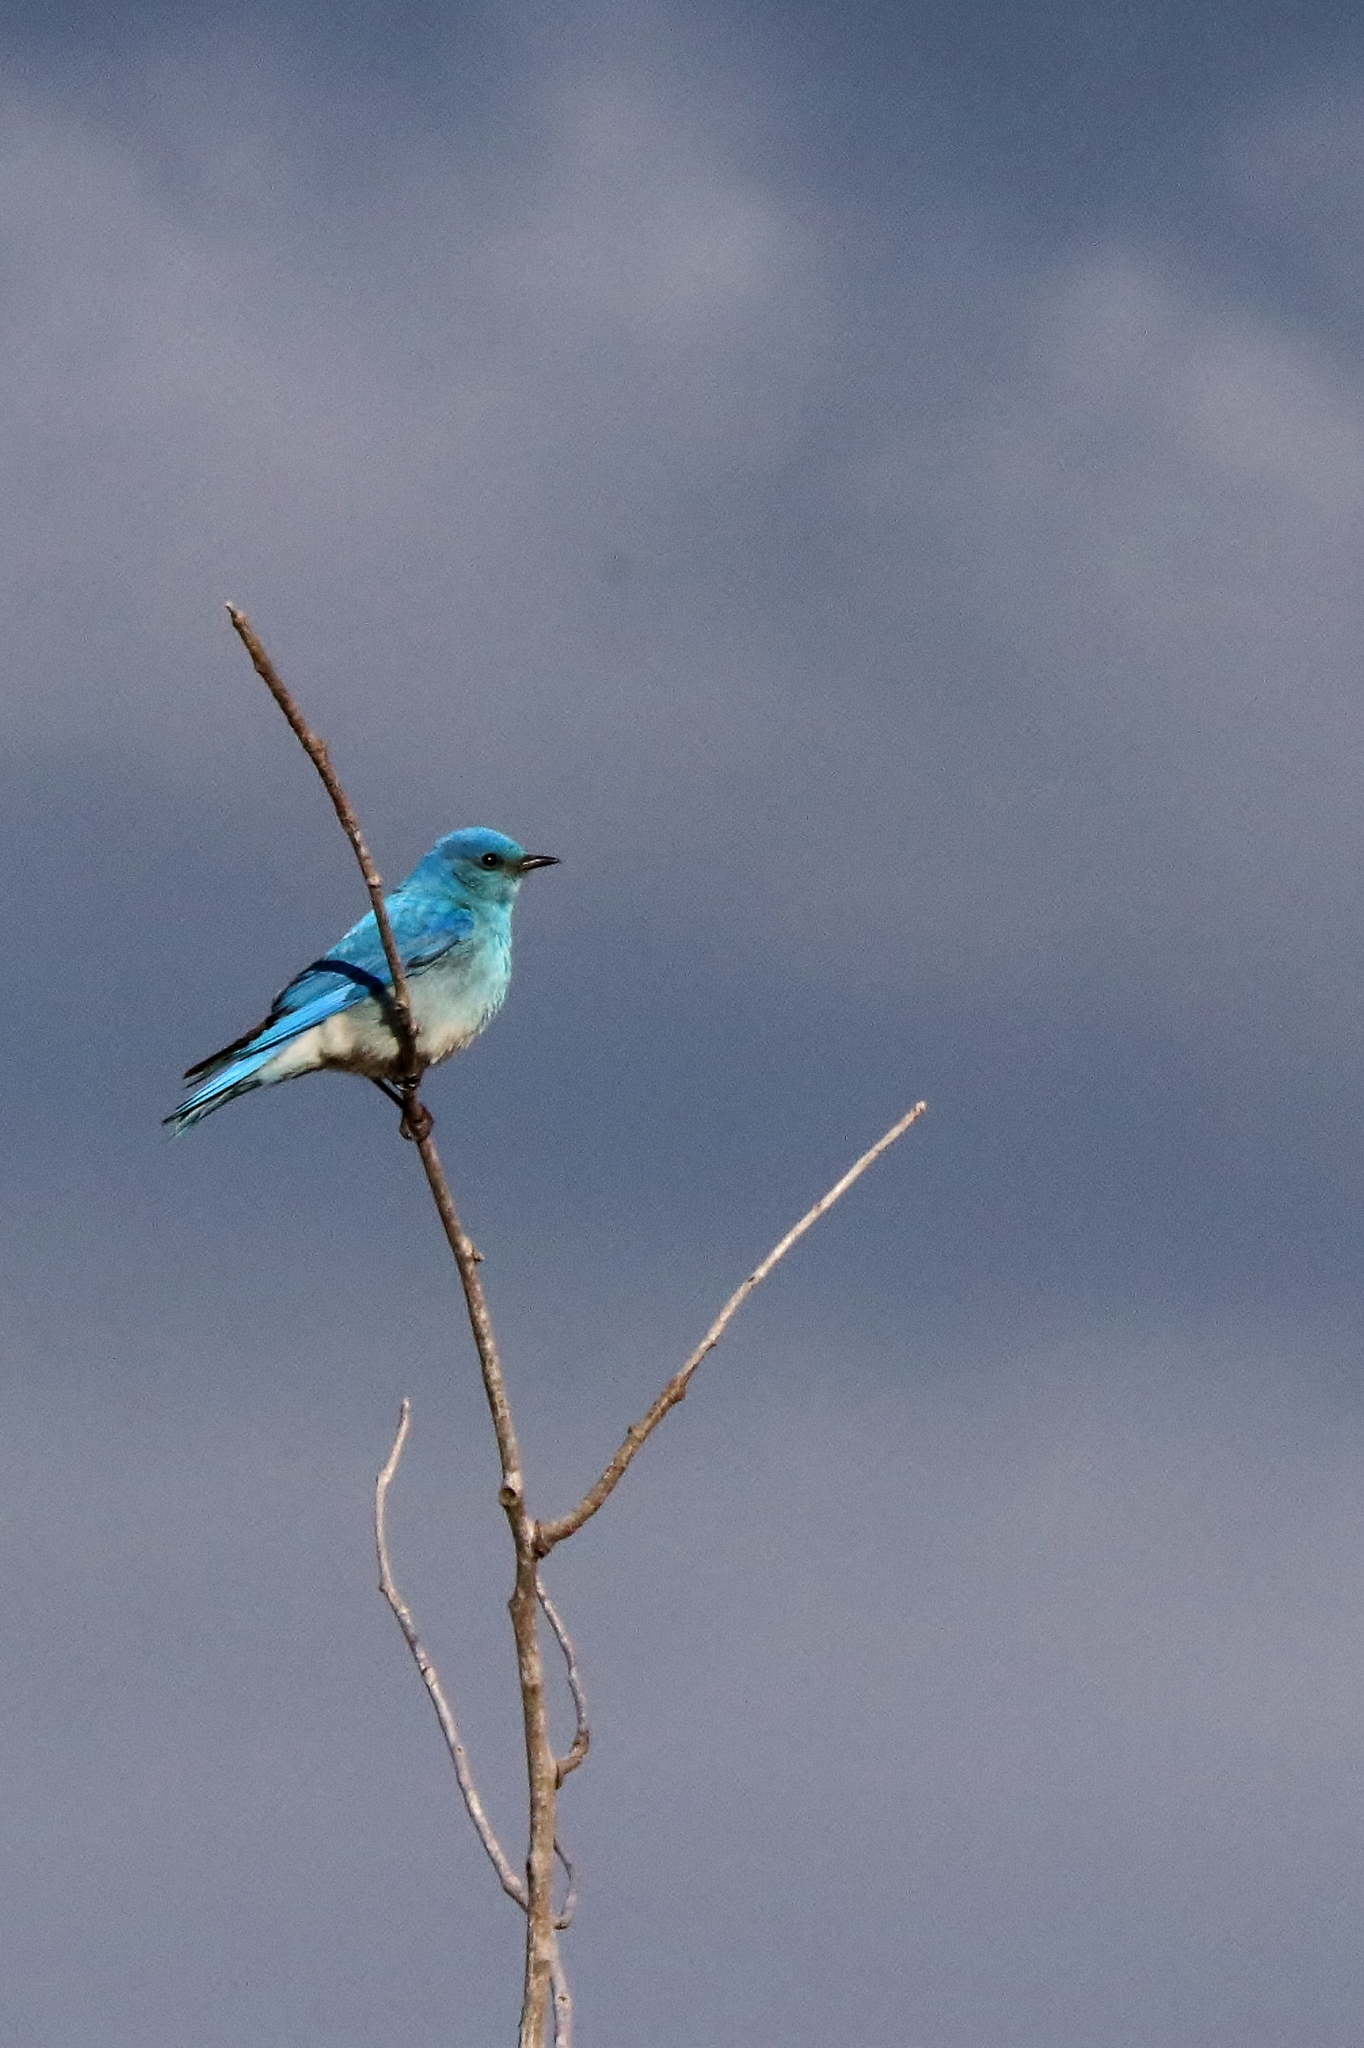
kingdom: Animalia
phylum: Chordata
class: Aves
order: Passeriformes
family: Turdidae
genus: Sialia
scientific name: Sialia currucoides
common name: Mountain bluebird
